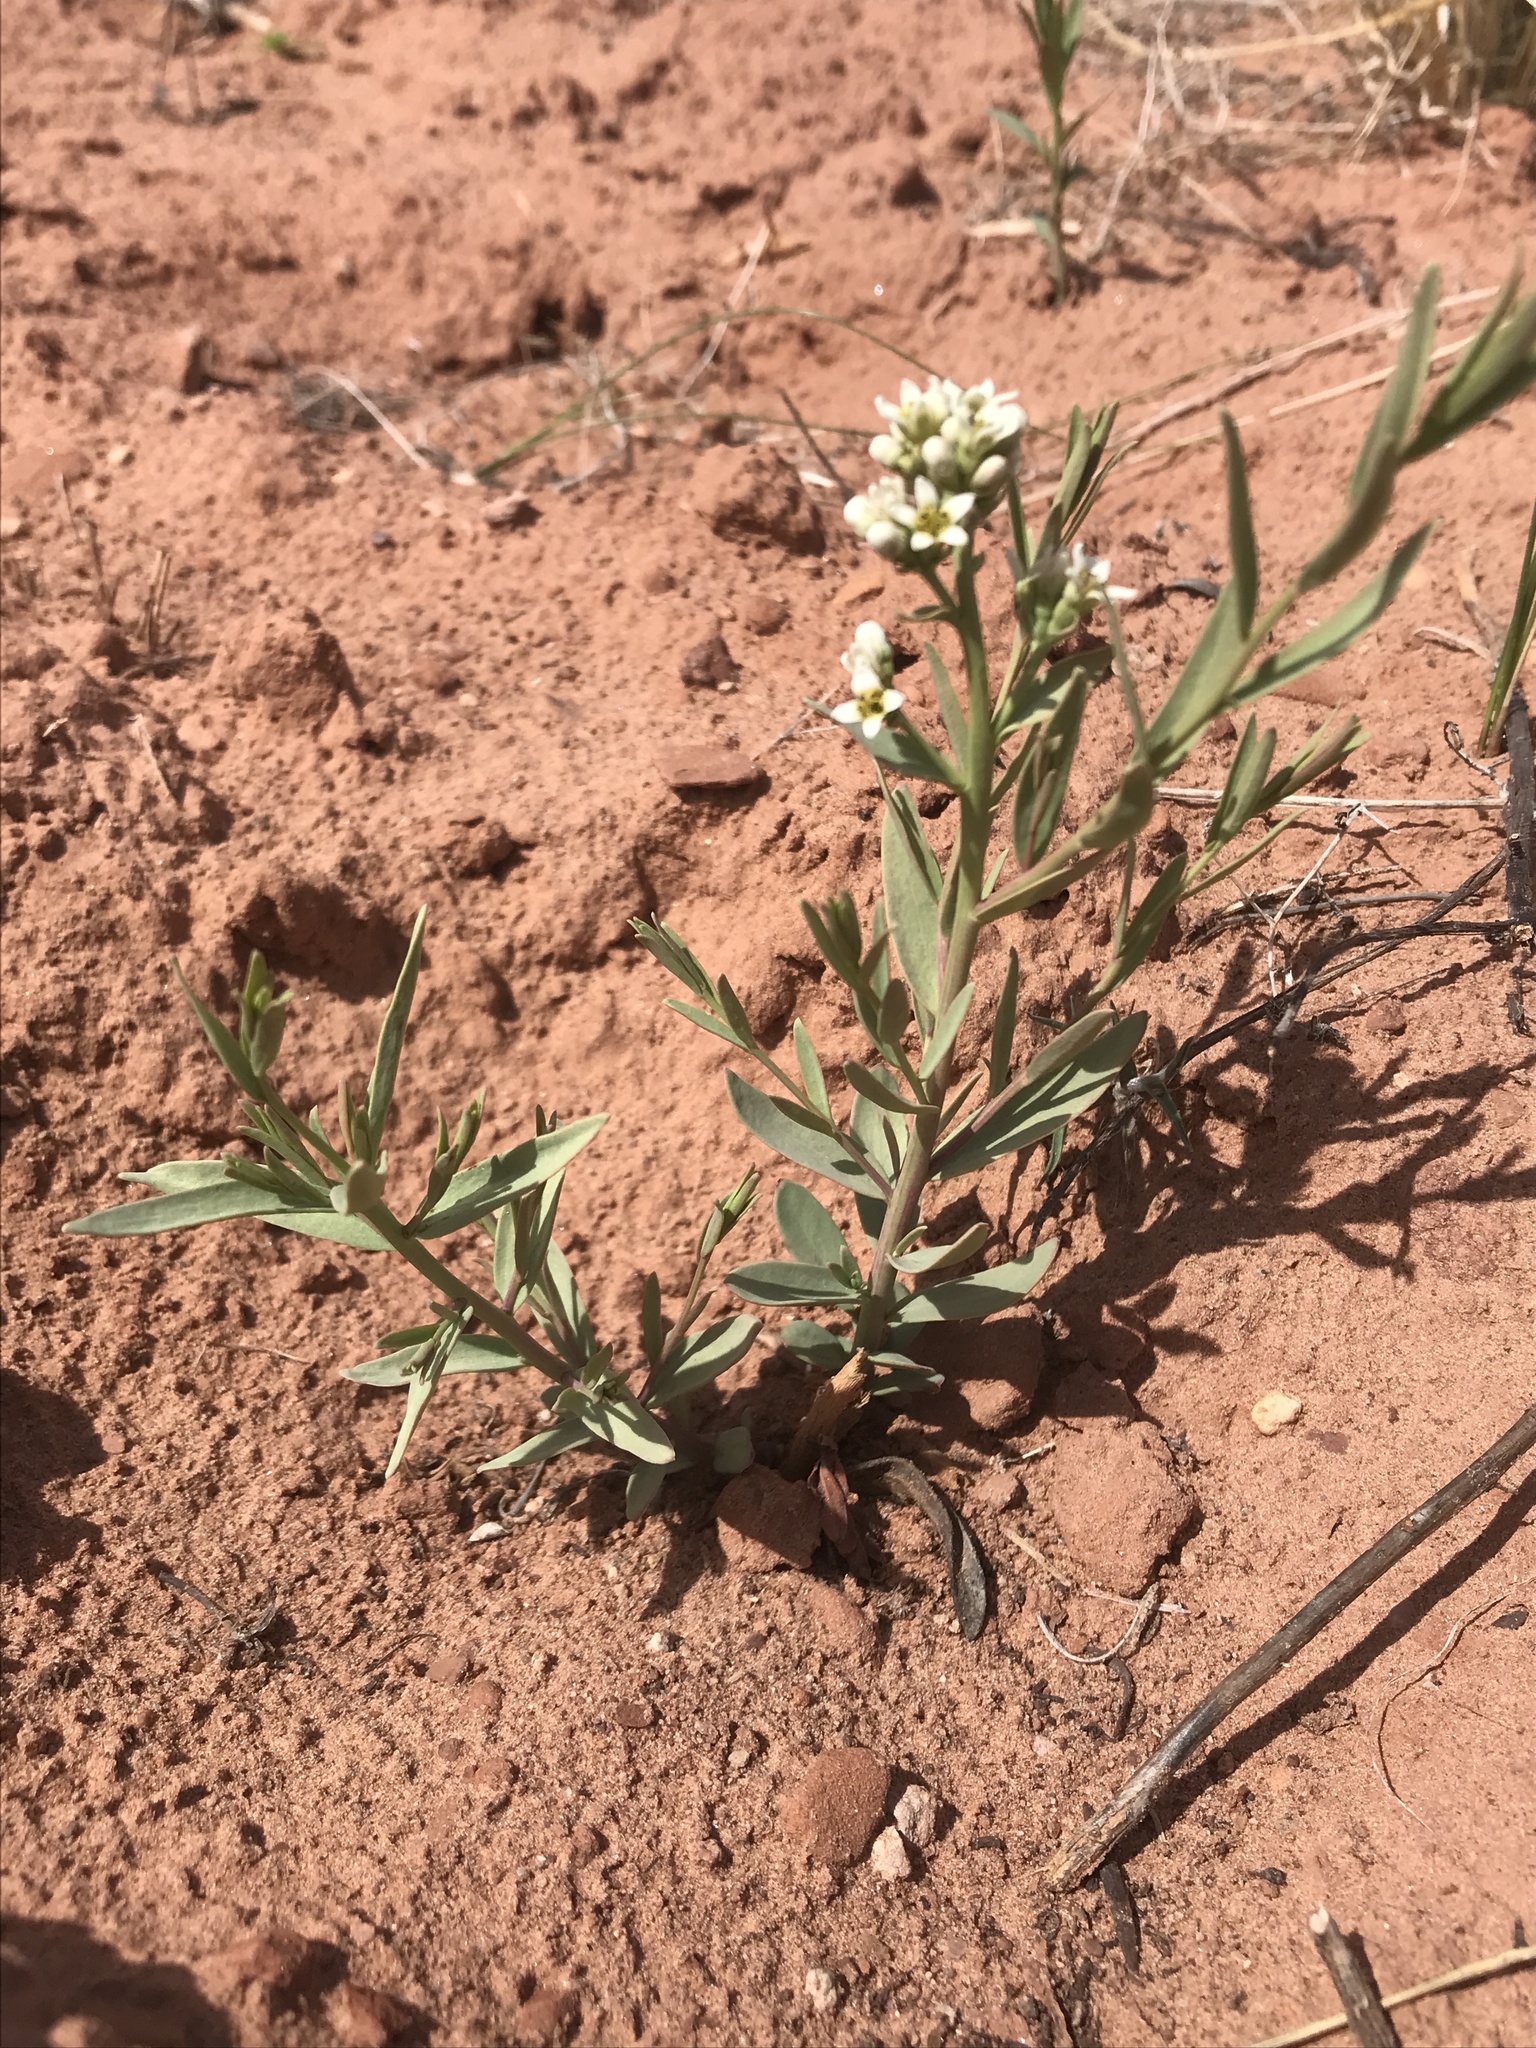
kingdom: Plantae
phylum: Tracheophyta
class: Magnoliopsida
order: Santalales
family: Comandraceae
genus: Comandra
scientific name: Comandra umbellata
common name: Bastard toadflax
